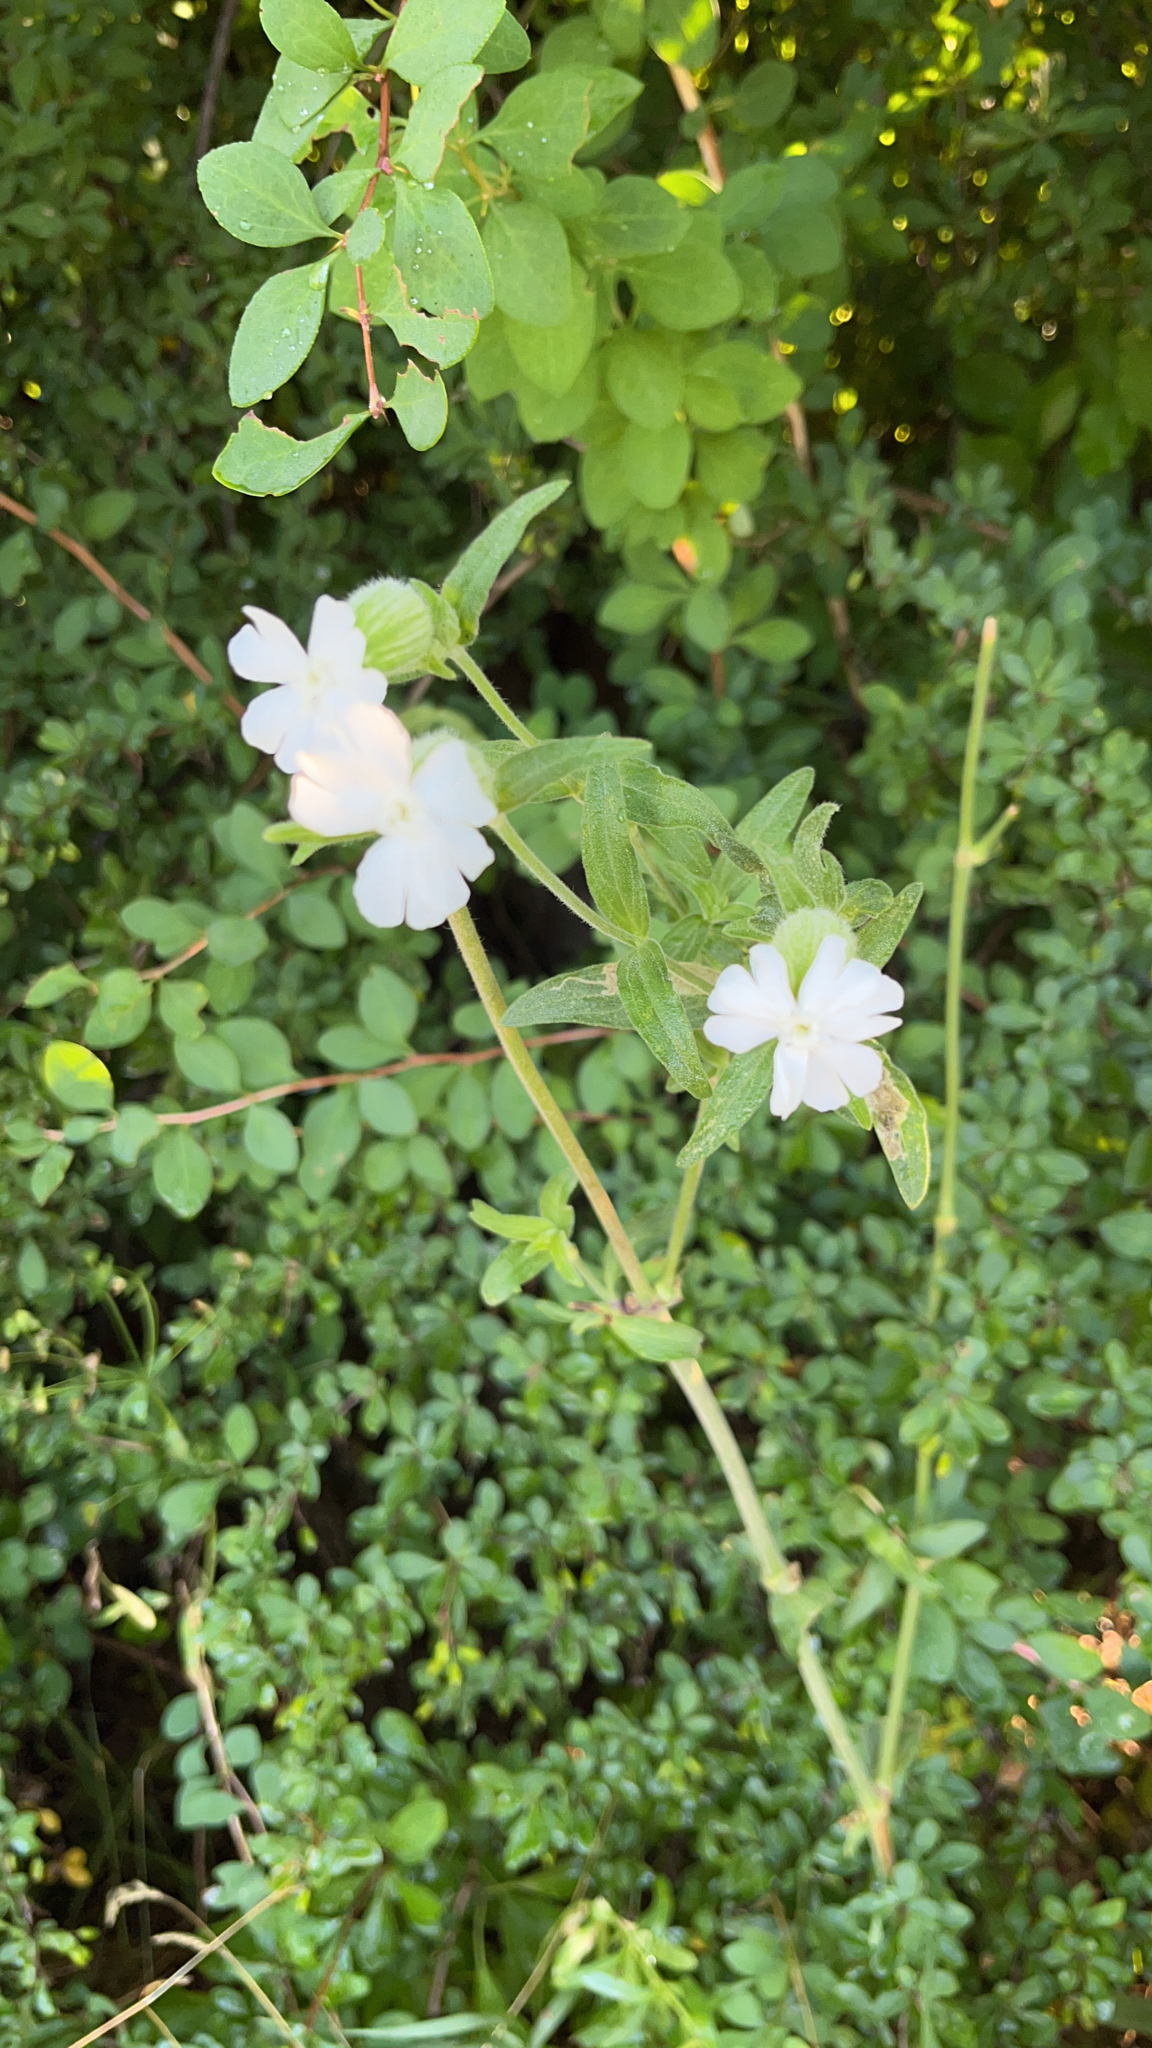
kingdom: Plantae
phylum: Tracheophyta
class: Magnoliopsida
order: Caryophyllales
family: Caryophyllaceae
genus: Silene
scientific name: Silene latifolia
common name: White campion
